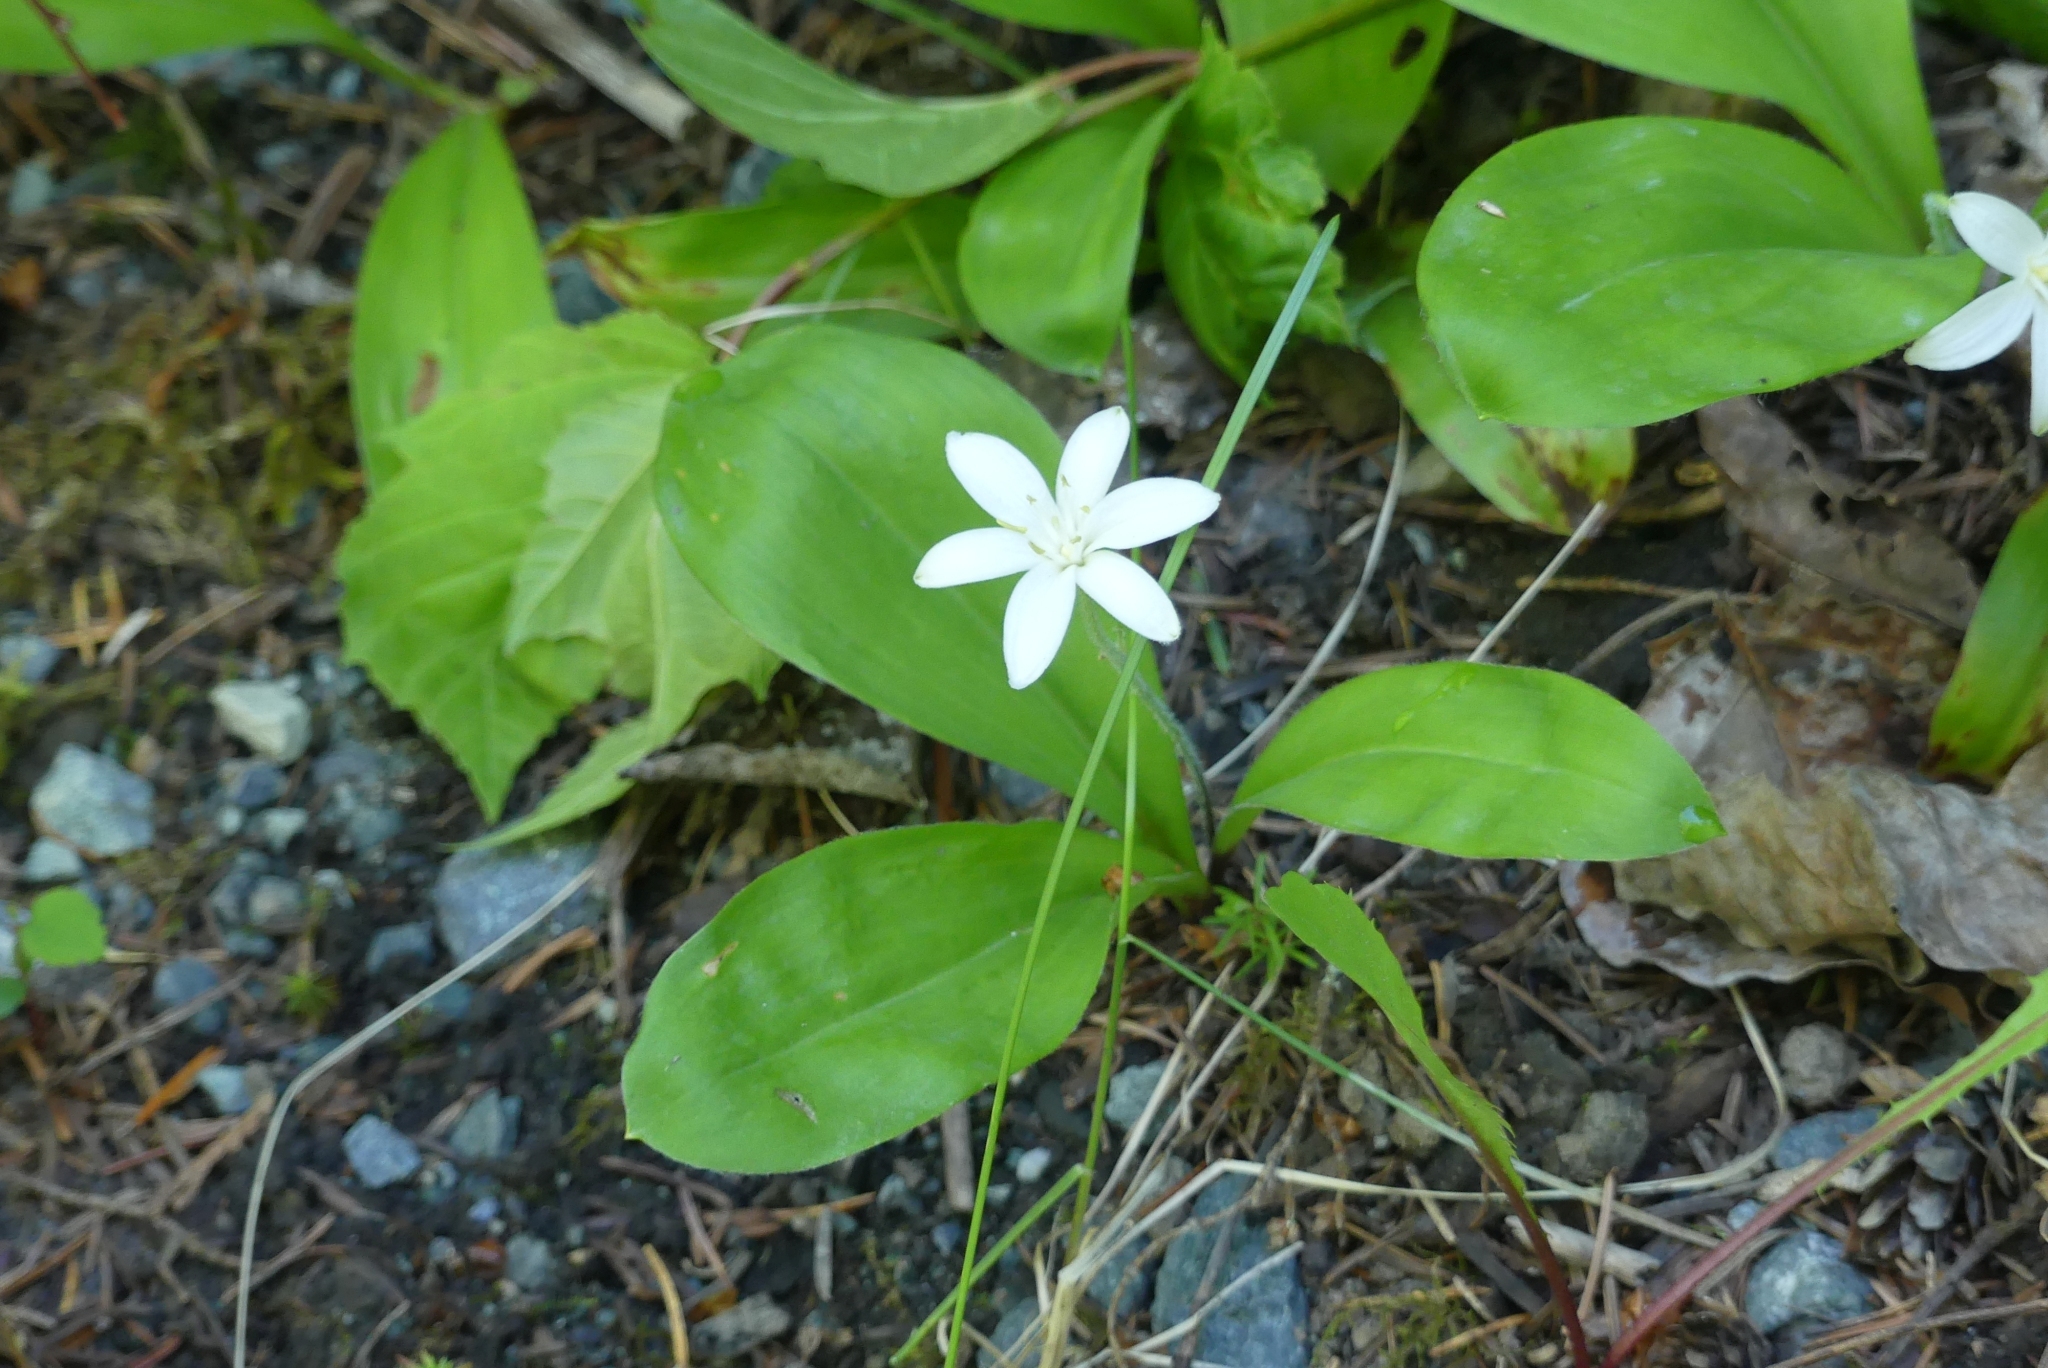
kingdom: Plantae
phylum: Tracheophyta
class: Liliopsida
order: Liliales
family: Liliaceae
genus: Clintonia
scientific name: Clintonia uniflora
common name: Queen's cup
